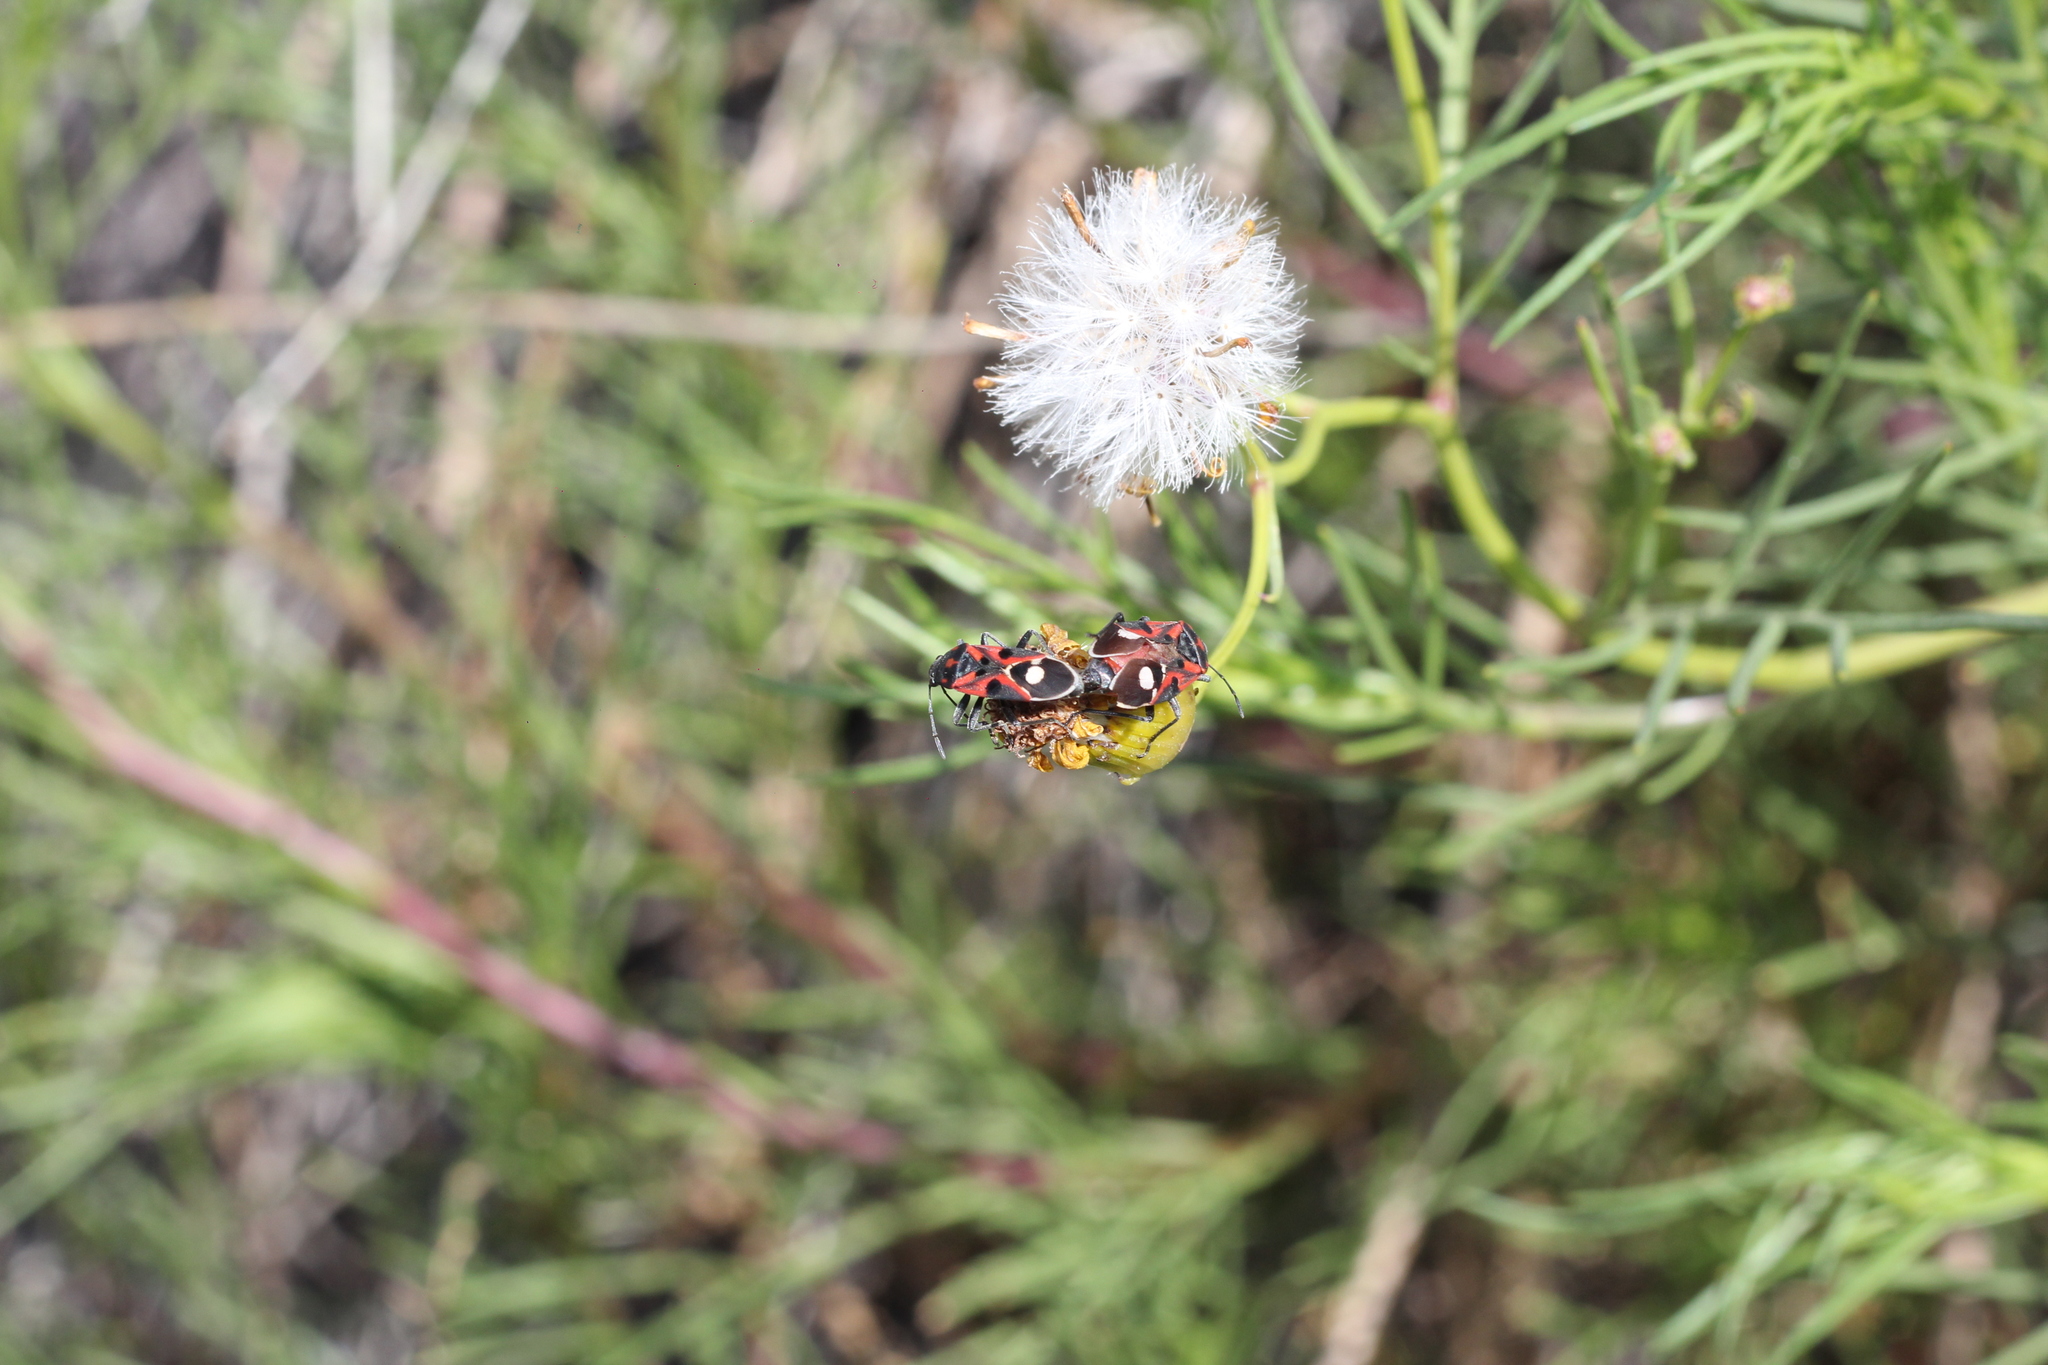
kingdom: Animalia
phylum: Arthropoda
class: Insecta
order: Hemiptera
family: Lygaeidae
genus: Lygaeus
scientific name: Lygaeus alboornatus
